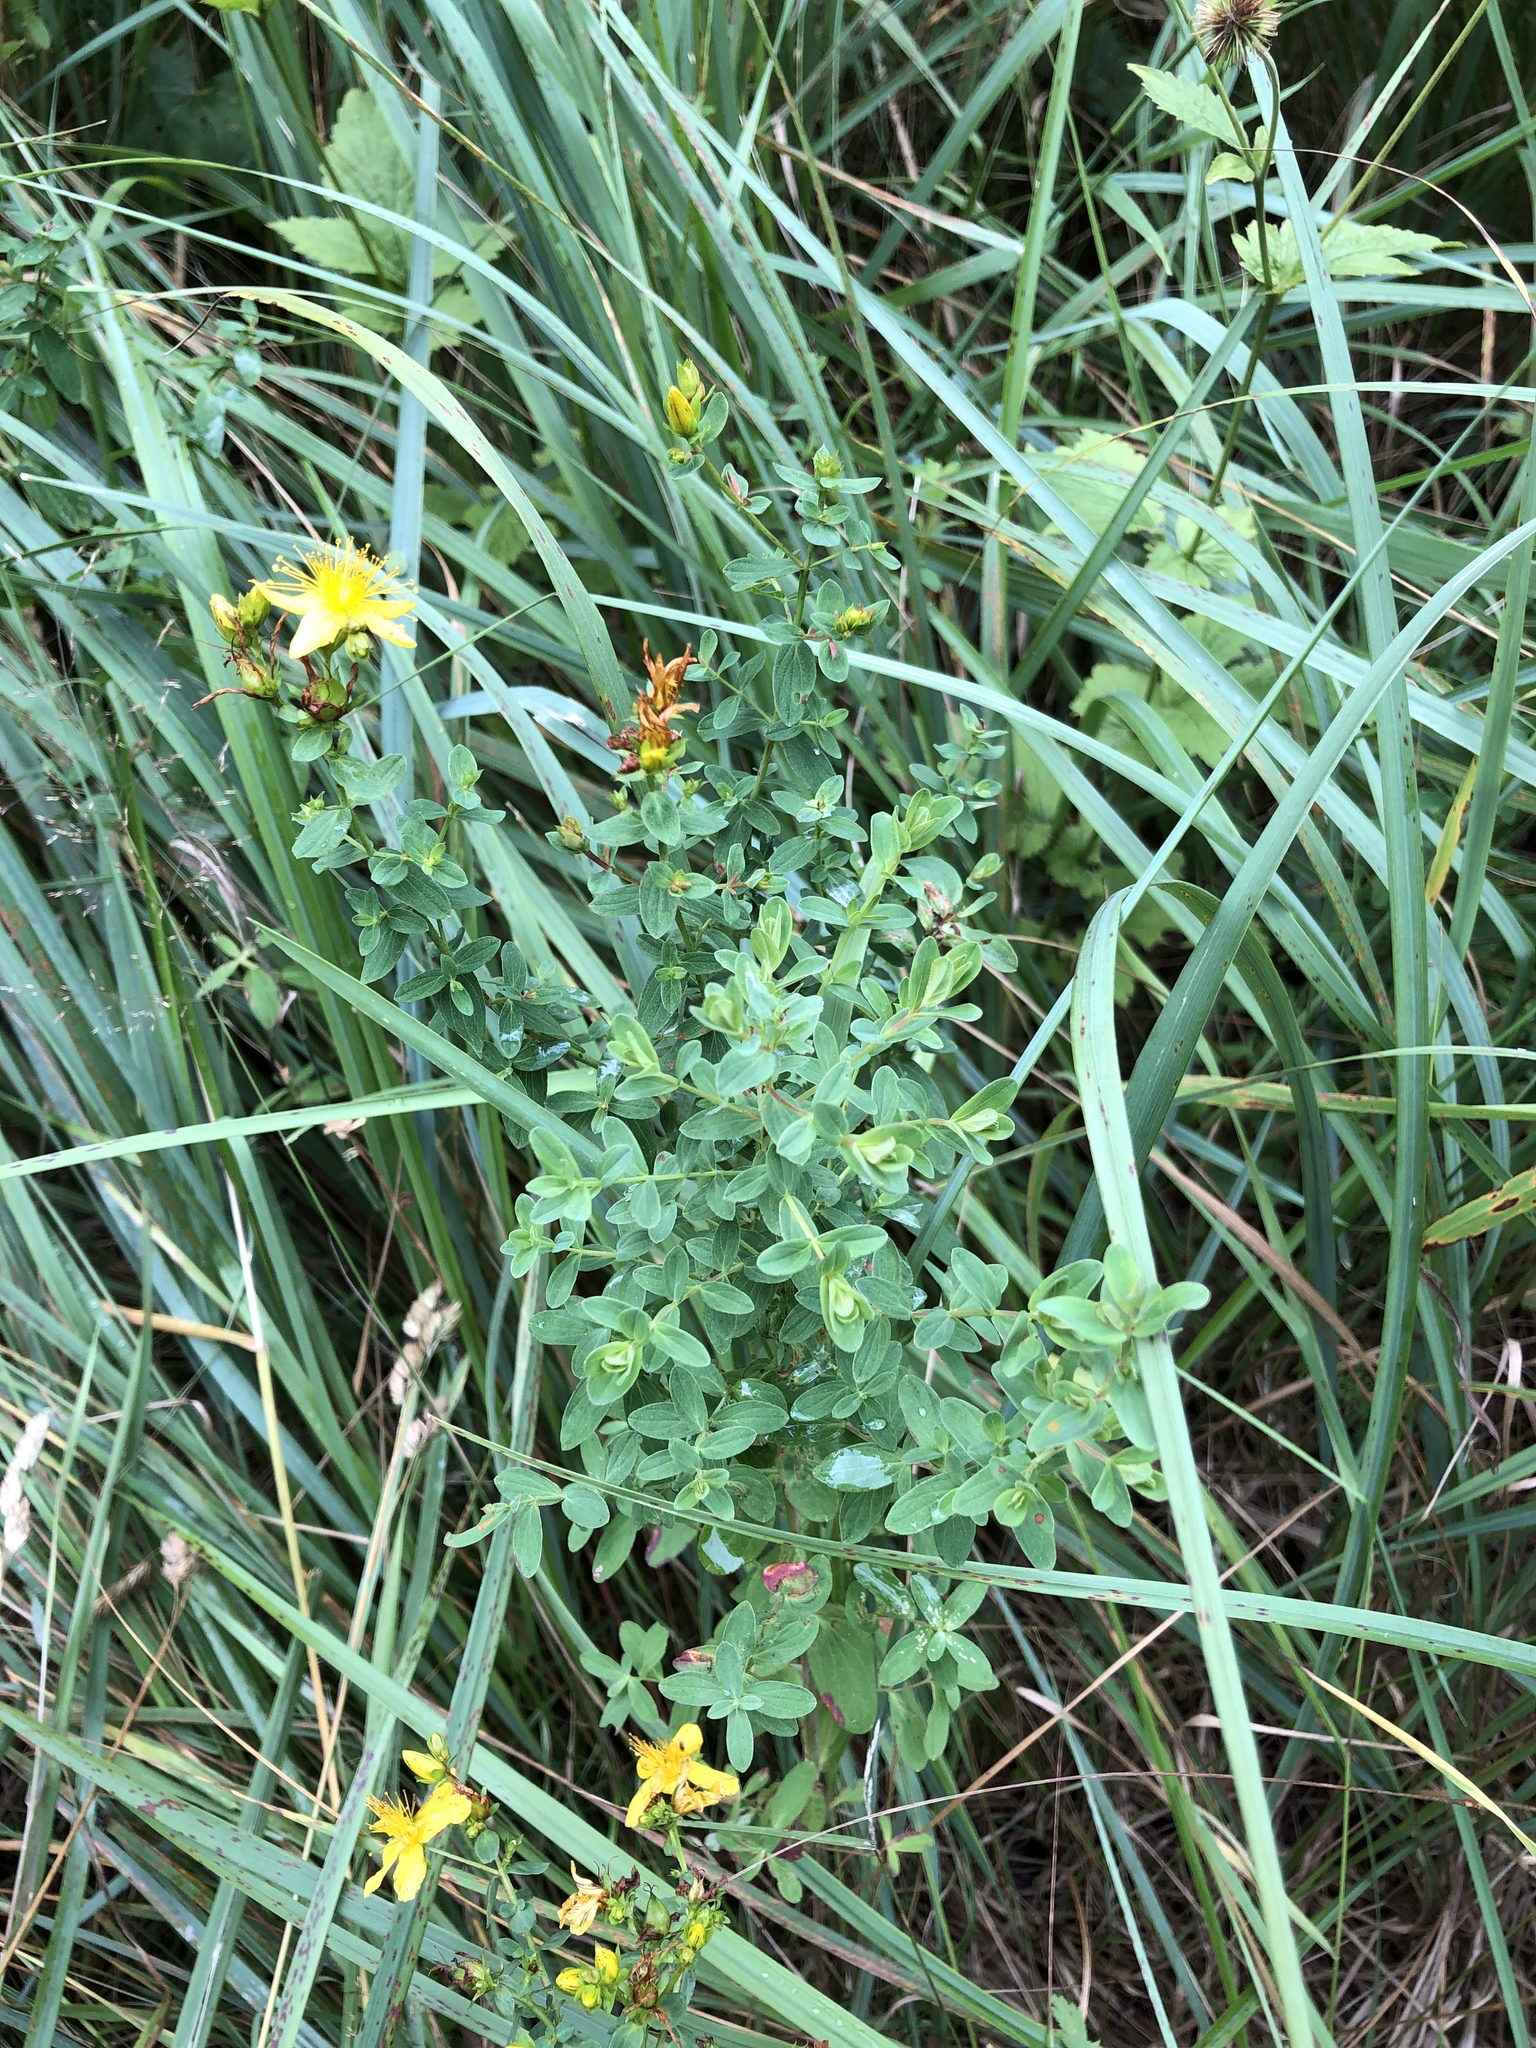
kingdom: Plantae
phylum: Tracheophyta
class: Magnoliopsida
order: Malpighiales
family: Hypericaceae
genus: Hypericum
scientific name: Hypericum perforatum
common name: Common st. johnswort
